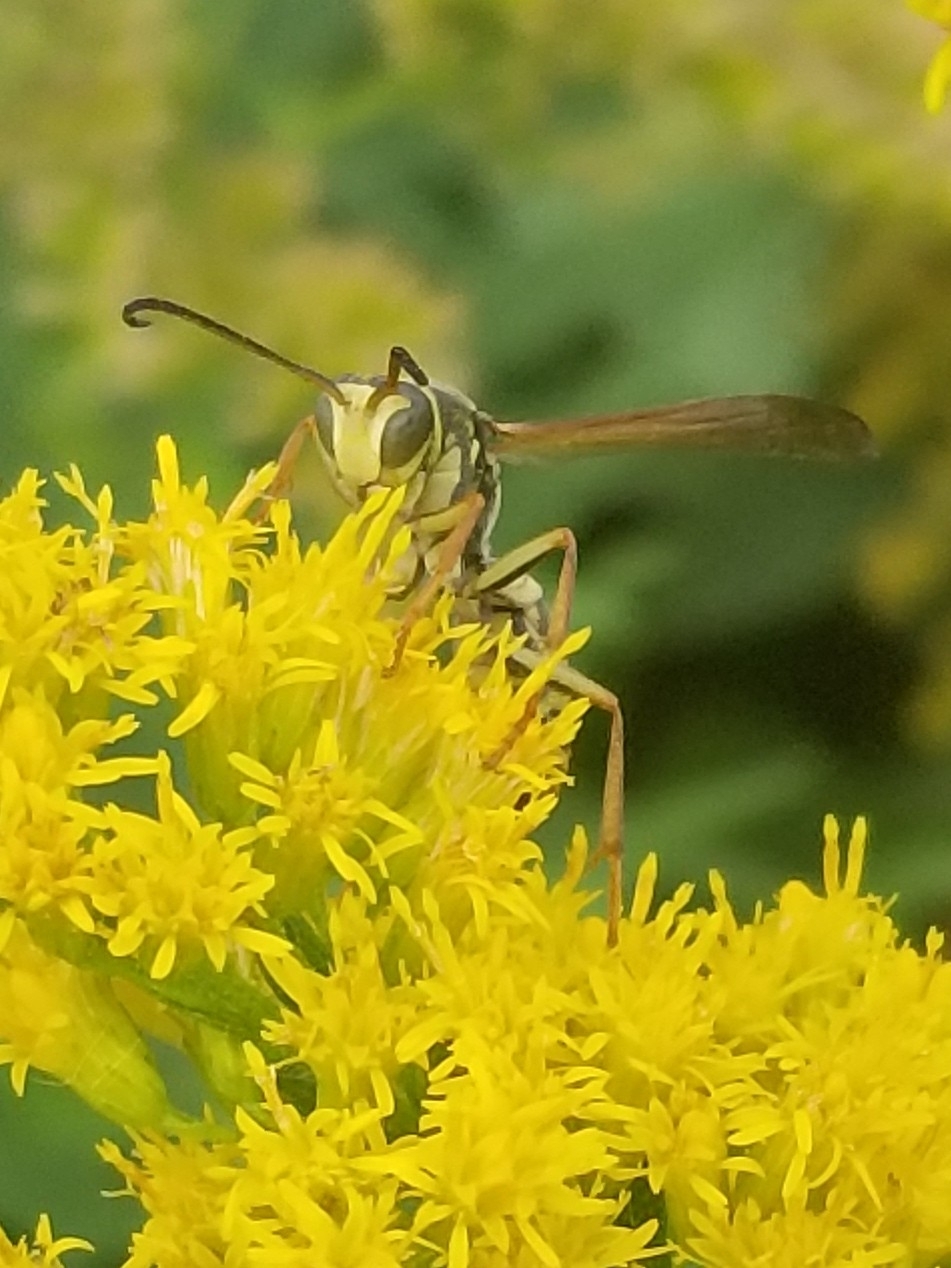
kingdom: Animalia
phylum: Arthropoda
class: Insecta
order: Hymenoptera
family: Eumenidae
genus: Polistes
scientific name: Polistes fuscatus
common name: Dark paper wasp
